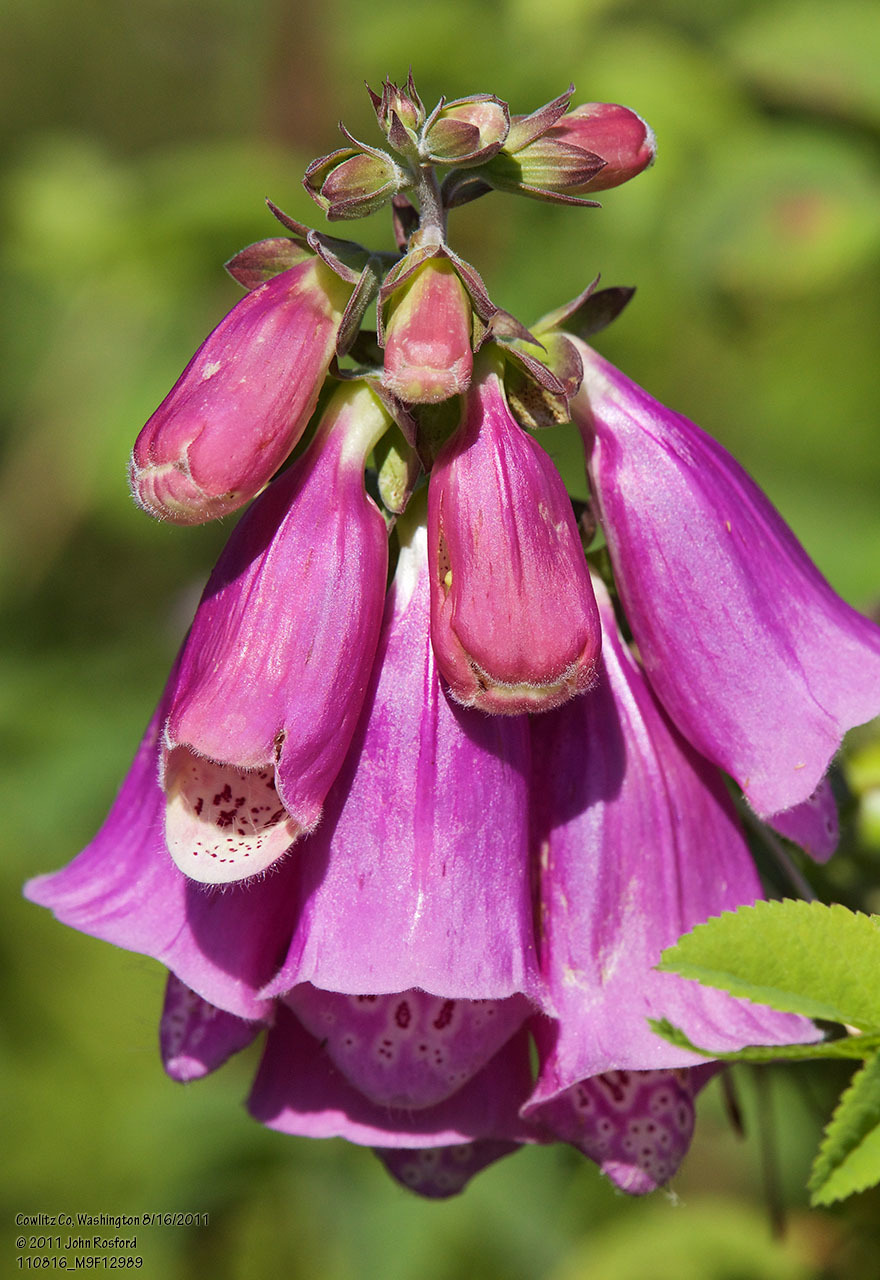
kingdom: Plantae
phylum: Tracheophyta
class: Magnoliopsida
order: Lamiales
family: Plantaginaceae
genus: Digitalis
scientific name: Digitalis purpurea
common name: Foxglove
